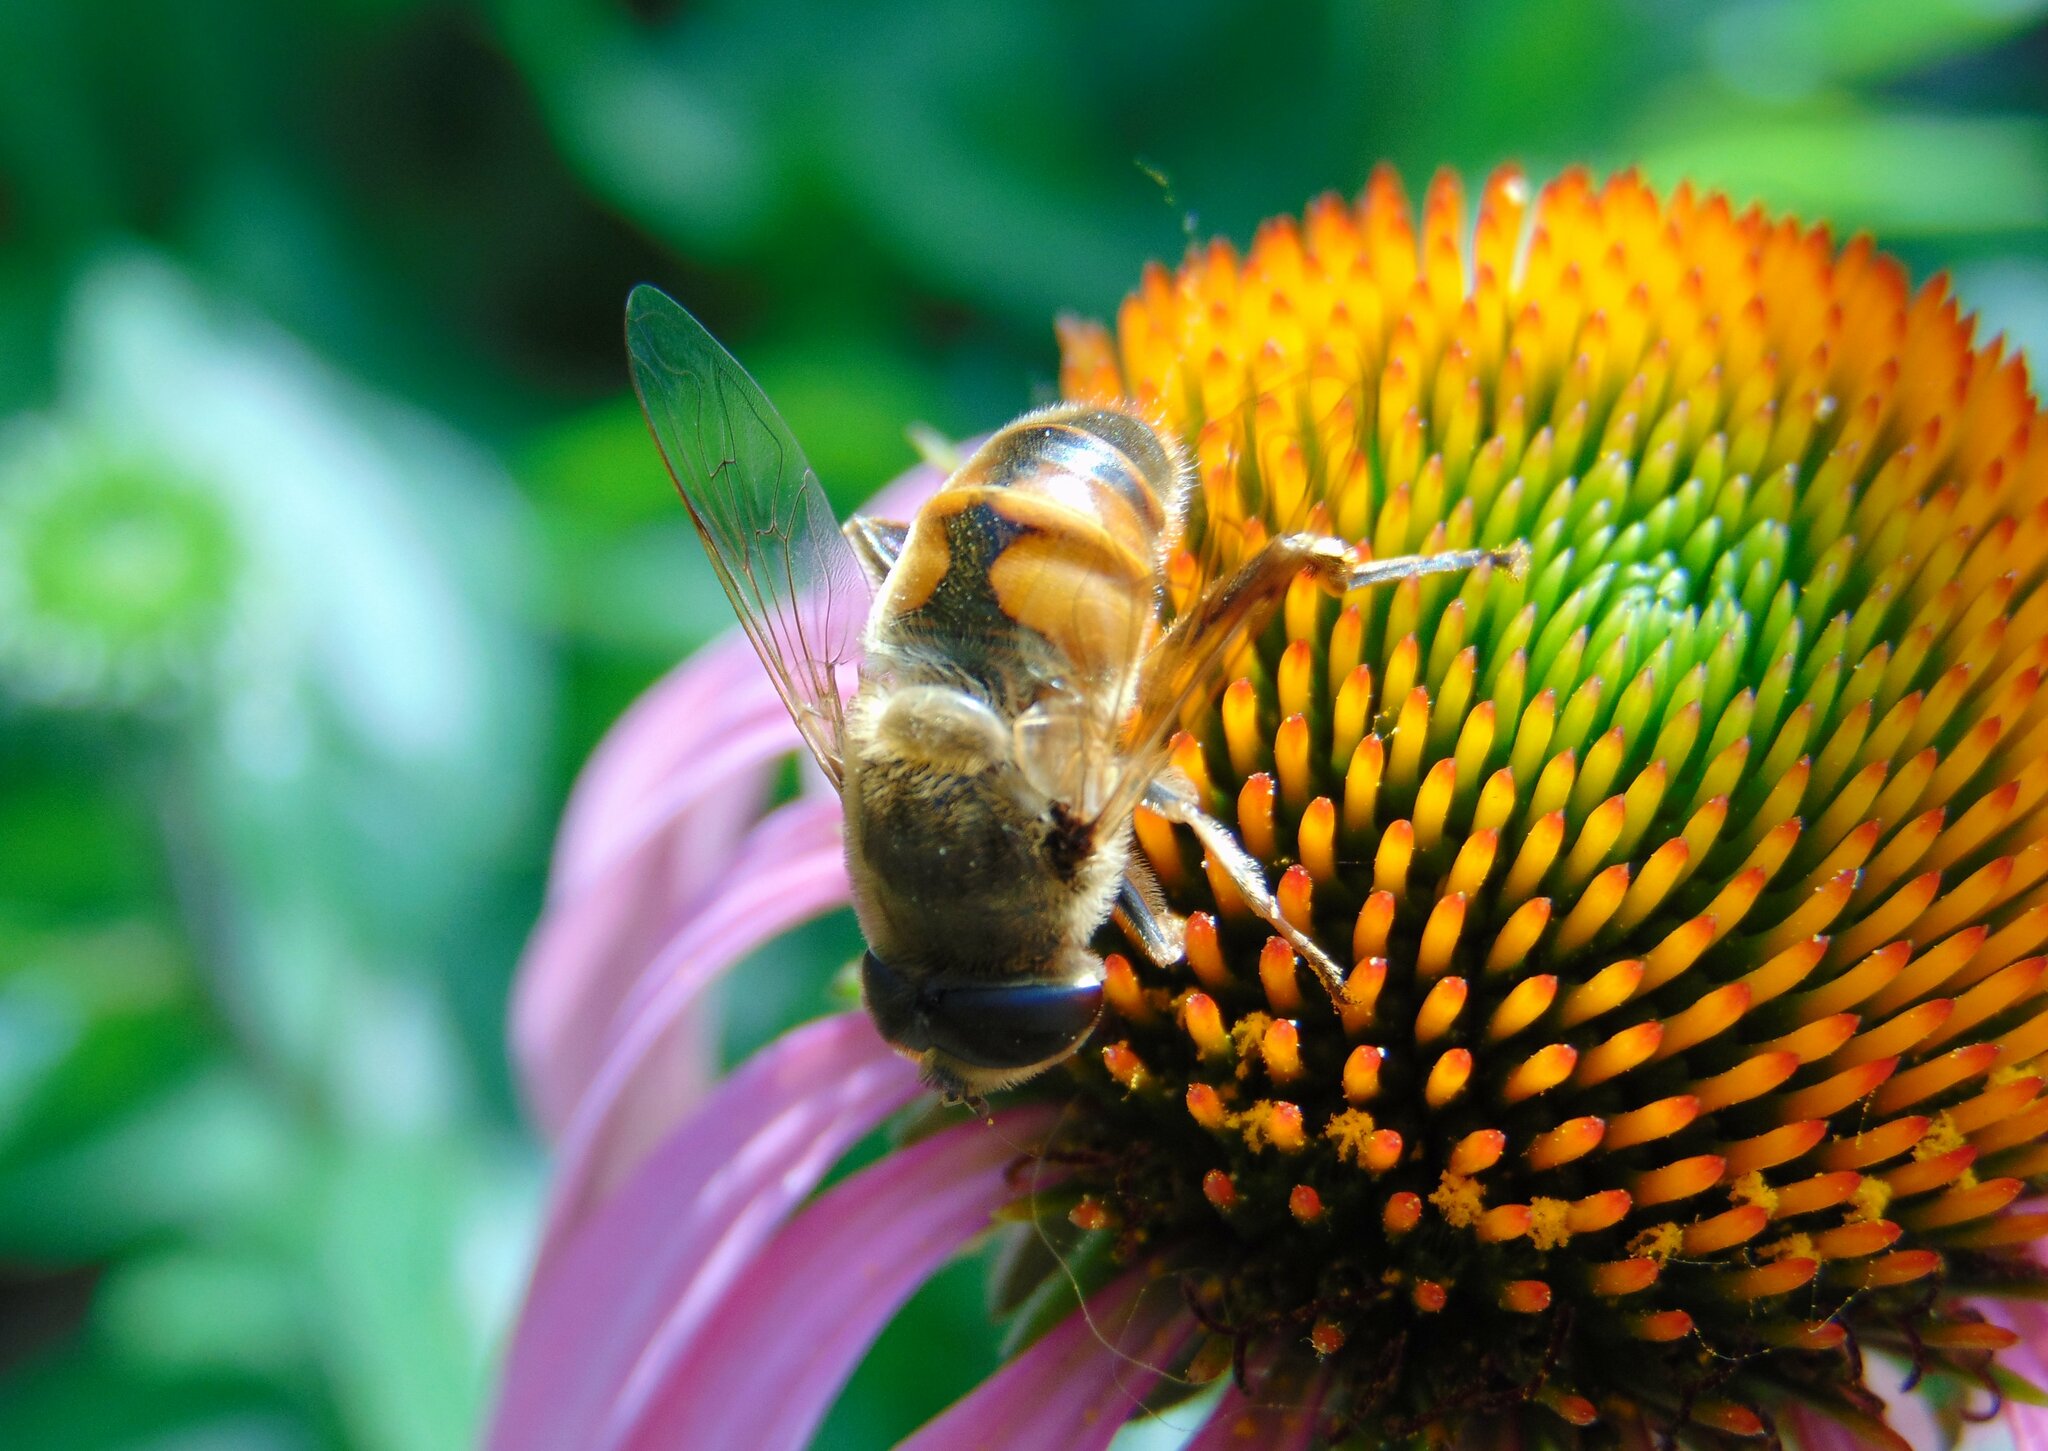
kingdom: Animalia
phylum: Arthropoda
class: Insecta
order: Diptera
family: Syrphidae
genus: Eristalis
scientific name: Eristalis tenax
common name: Drone fly
